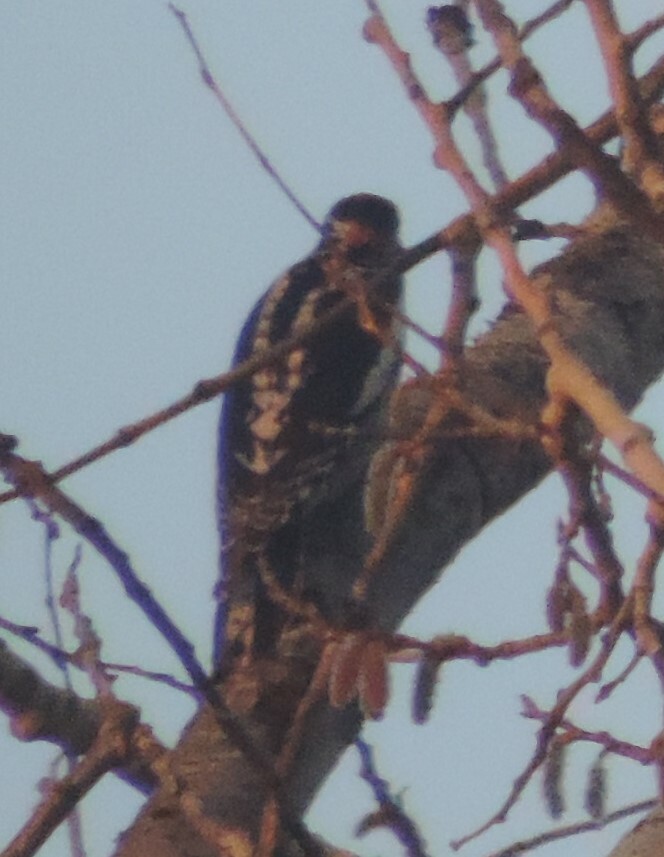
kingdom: Animalia
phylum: Chordata
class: Aves
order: Piciformes
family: Picidae
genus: Sphyrapicus
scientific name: Sphyrapicus nuchalis
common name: Red-naped sapsucker
